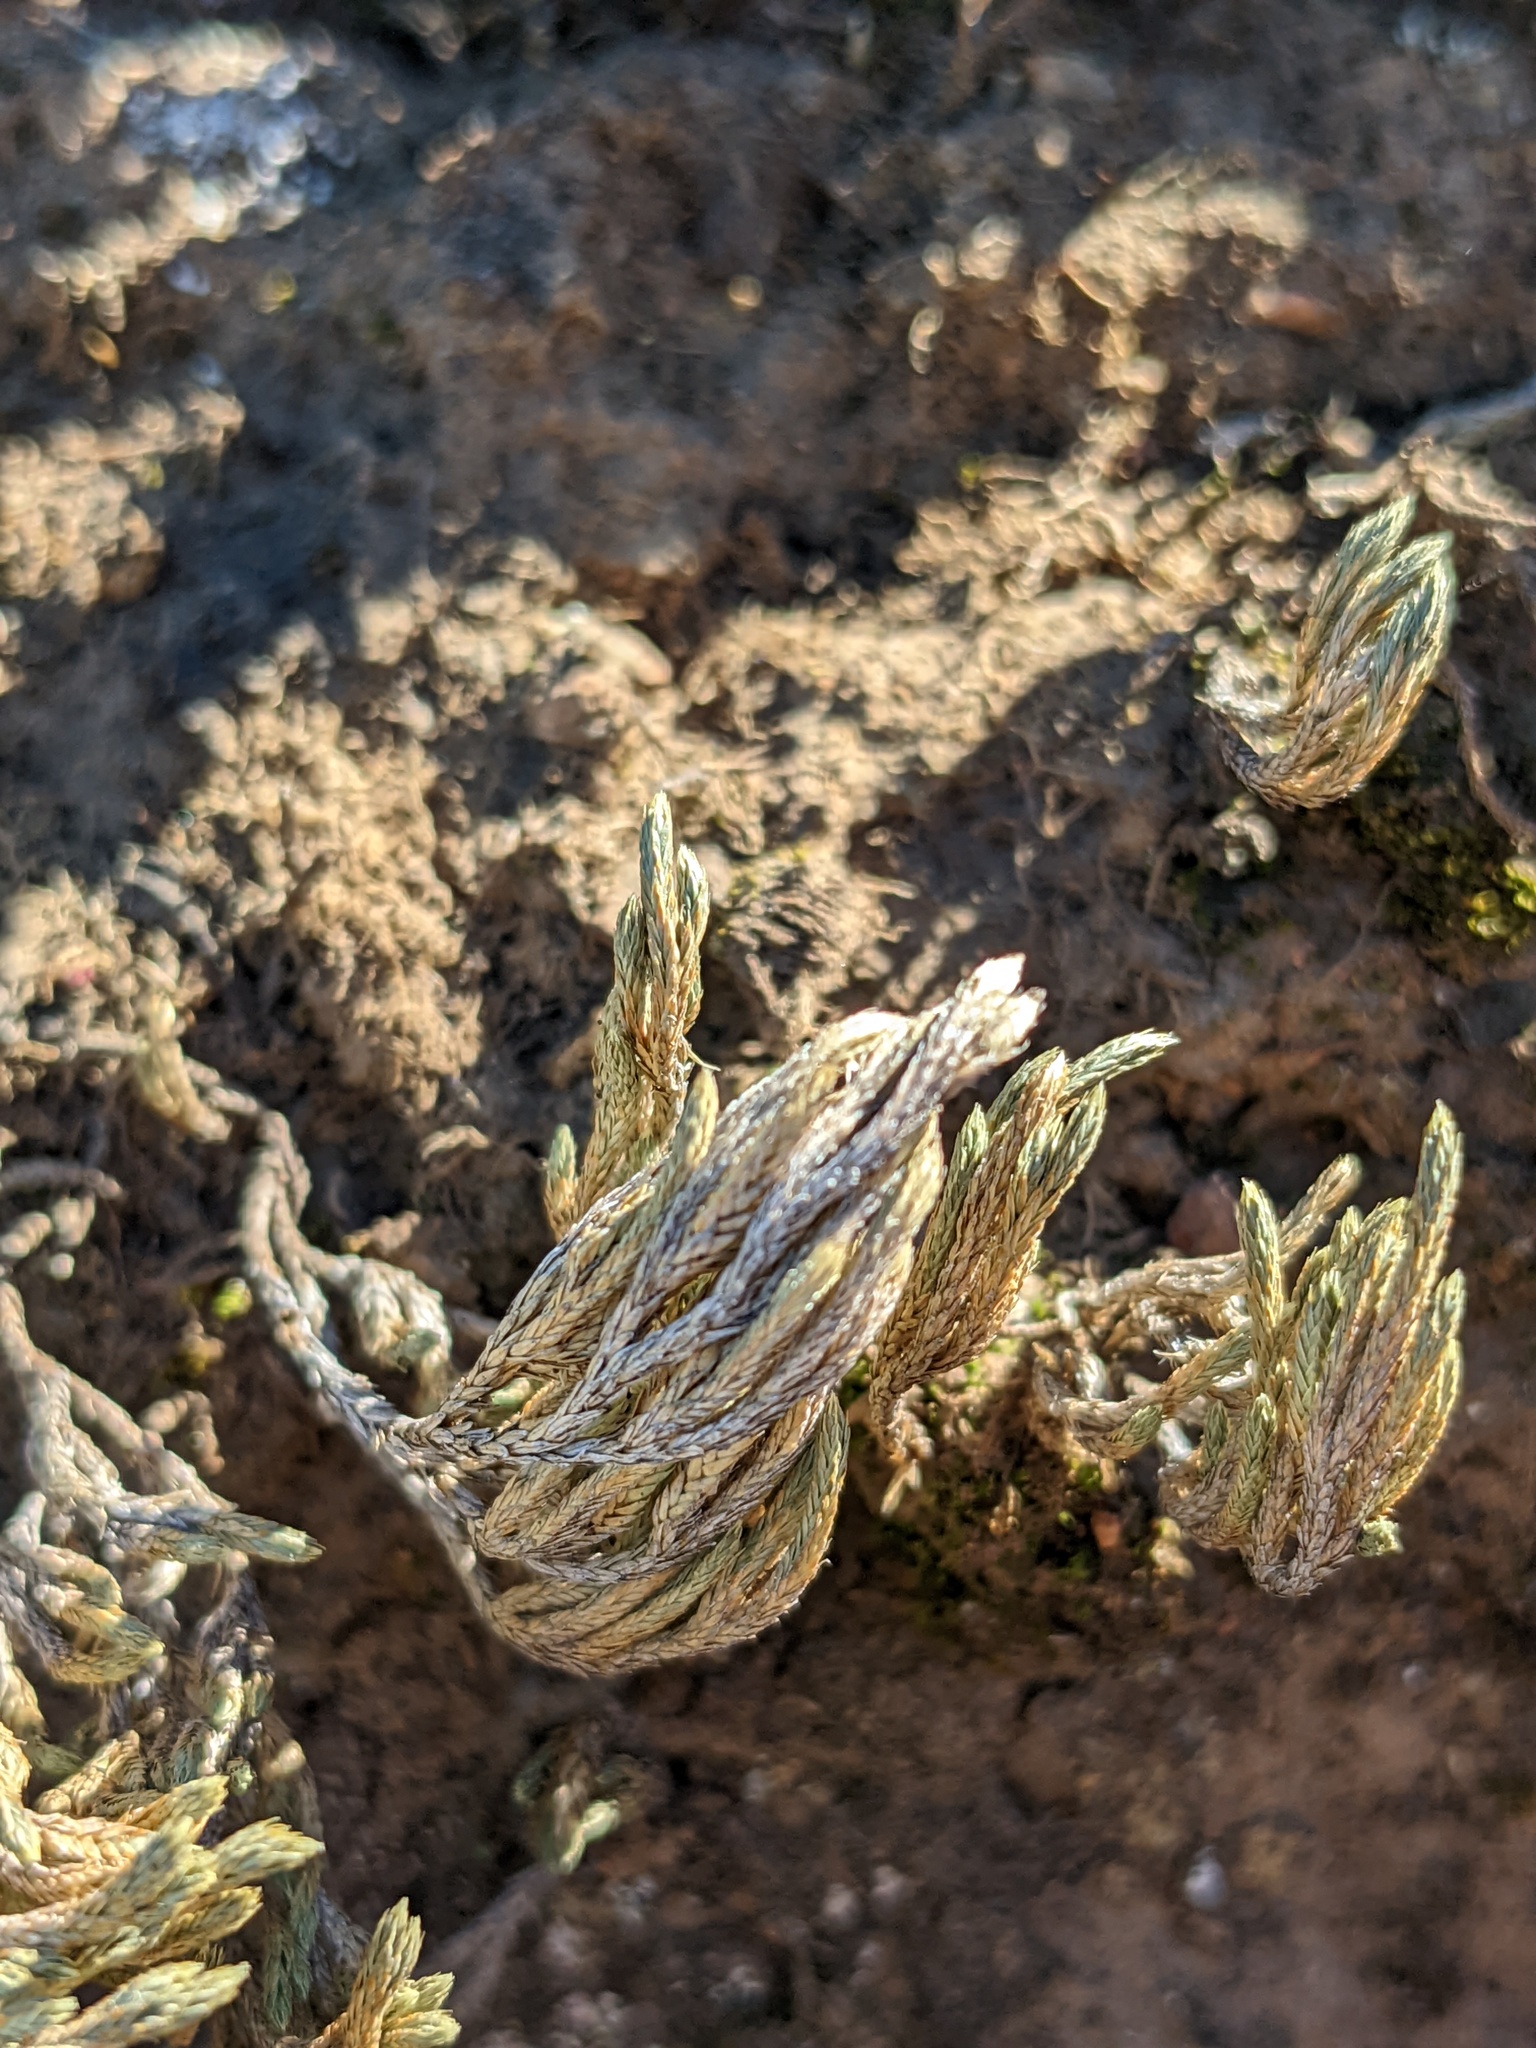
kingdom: Plantae
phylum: Tracheophyta
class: Lycopodiopsida
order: Selaginellales
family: Selaginellaceae
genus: Selaginella
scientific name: Selaginella bigelovii
